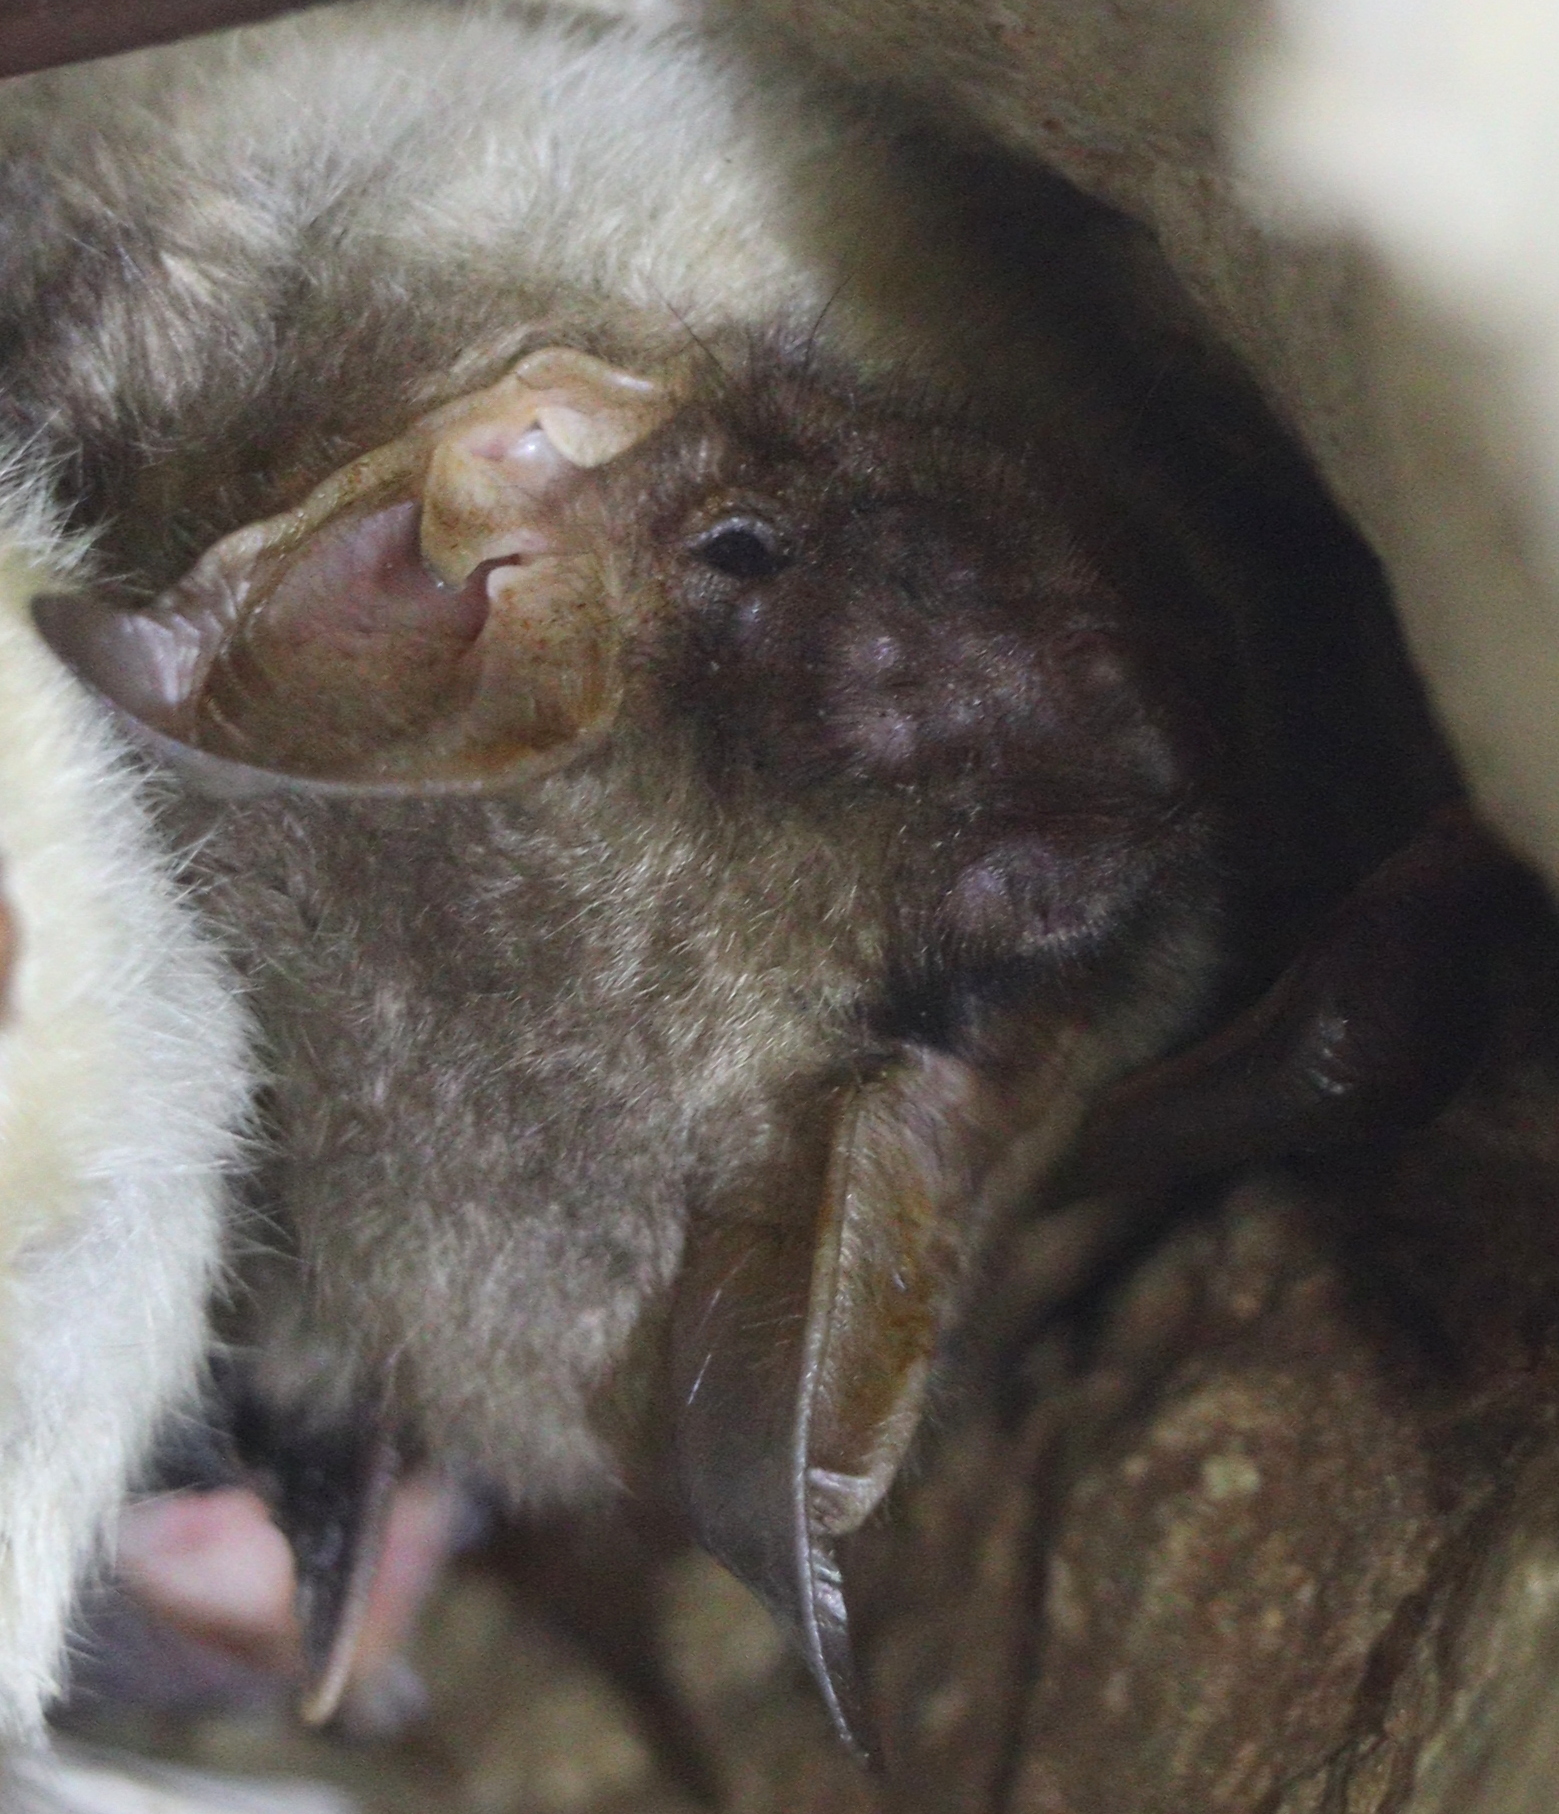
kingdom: Animalia
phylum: Chordata
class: Mammalia
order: Chiroptera
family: Vespertilionidae
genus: Myotis
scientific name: Myotis myotis
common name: Greater mouse-eared bat
